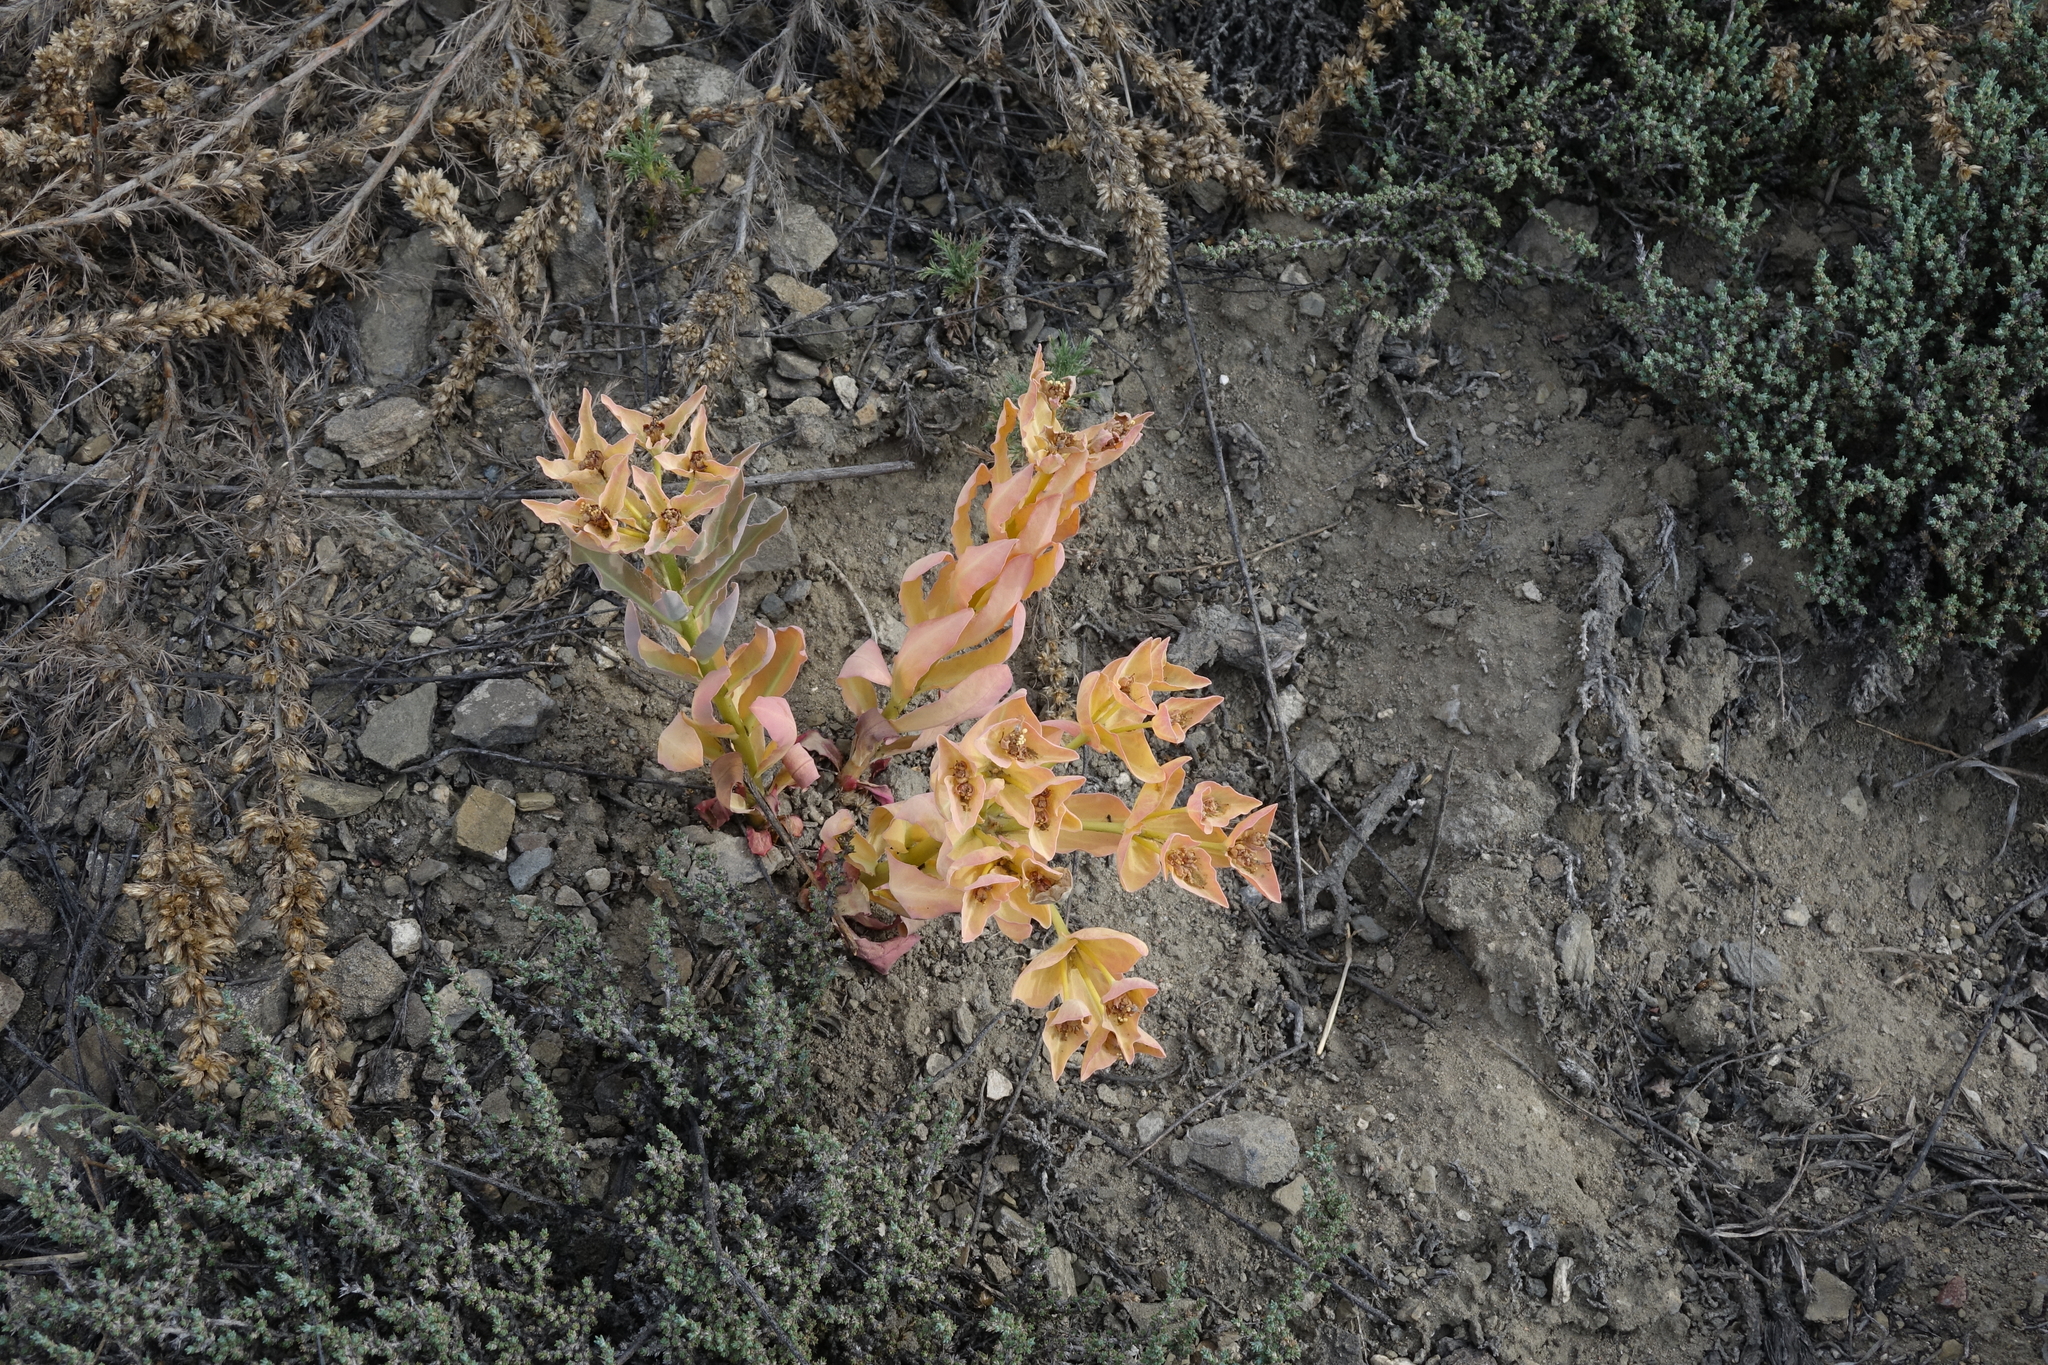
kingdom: Plantae
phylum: Tracheophyta
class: Magnoliopsida
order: Malpighiales
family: Euphorbiaceae
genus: Euphorbia
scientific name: Euphorbia mongolica
